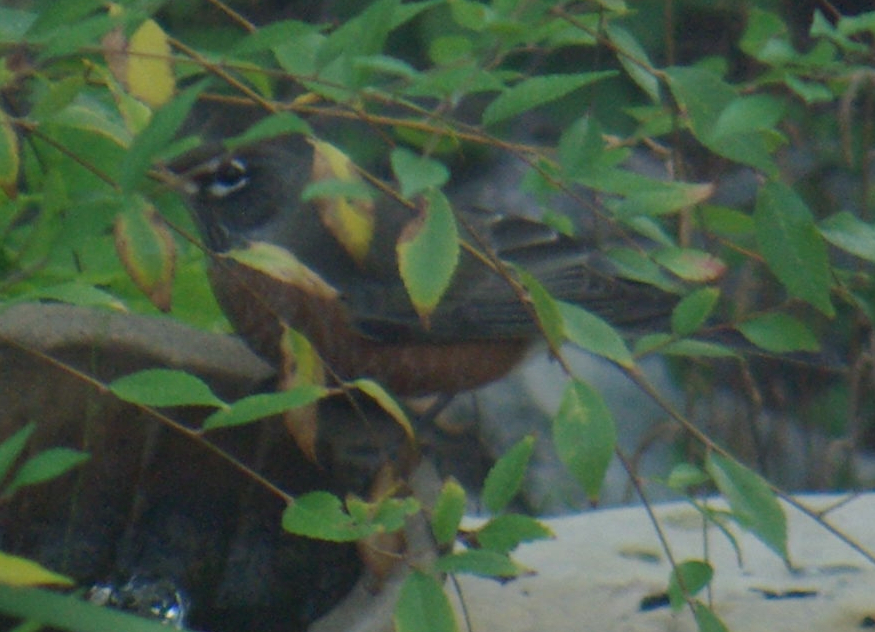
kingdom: Animalia
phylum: Chordata
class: Aves
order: Passeriformes
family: Turdidae
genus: Turdus
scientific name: Turdus migratorius
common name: American robin
